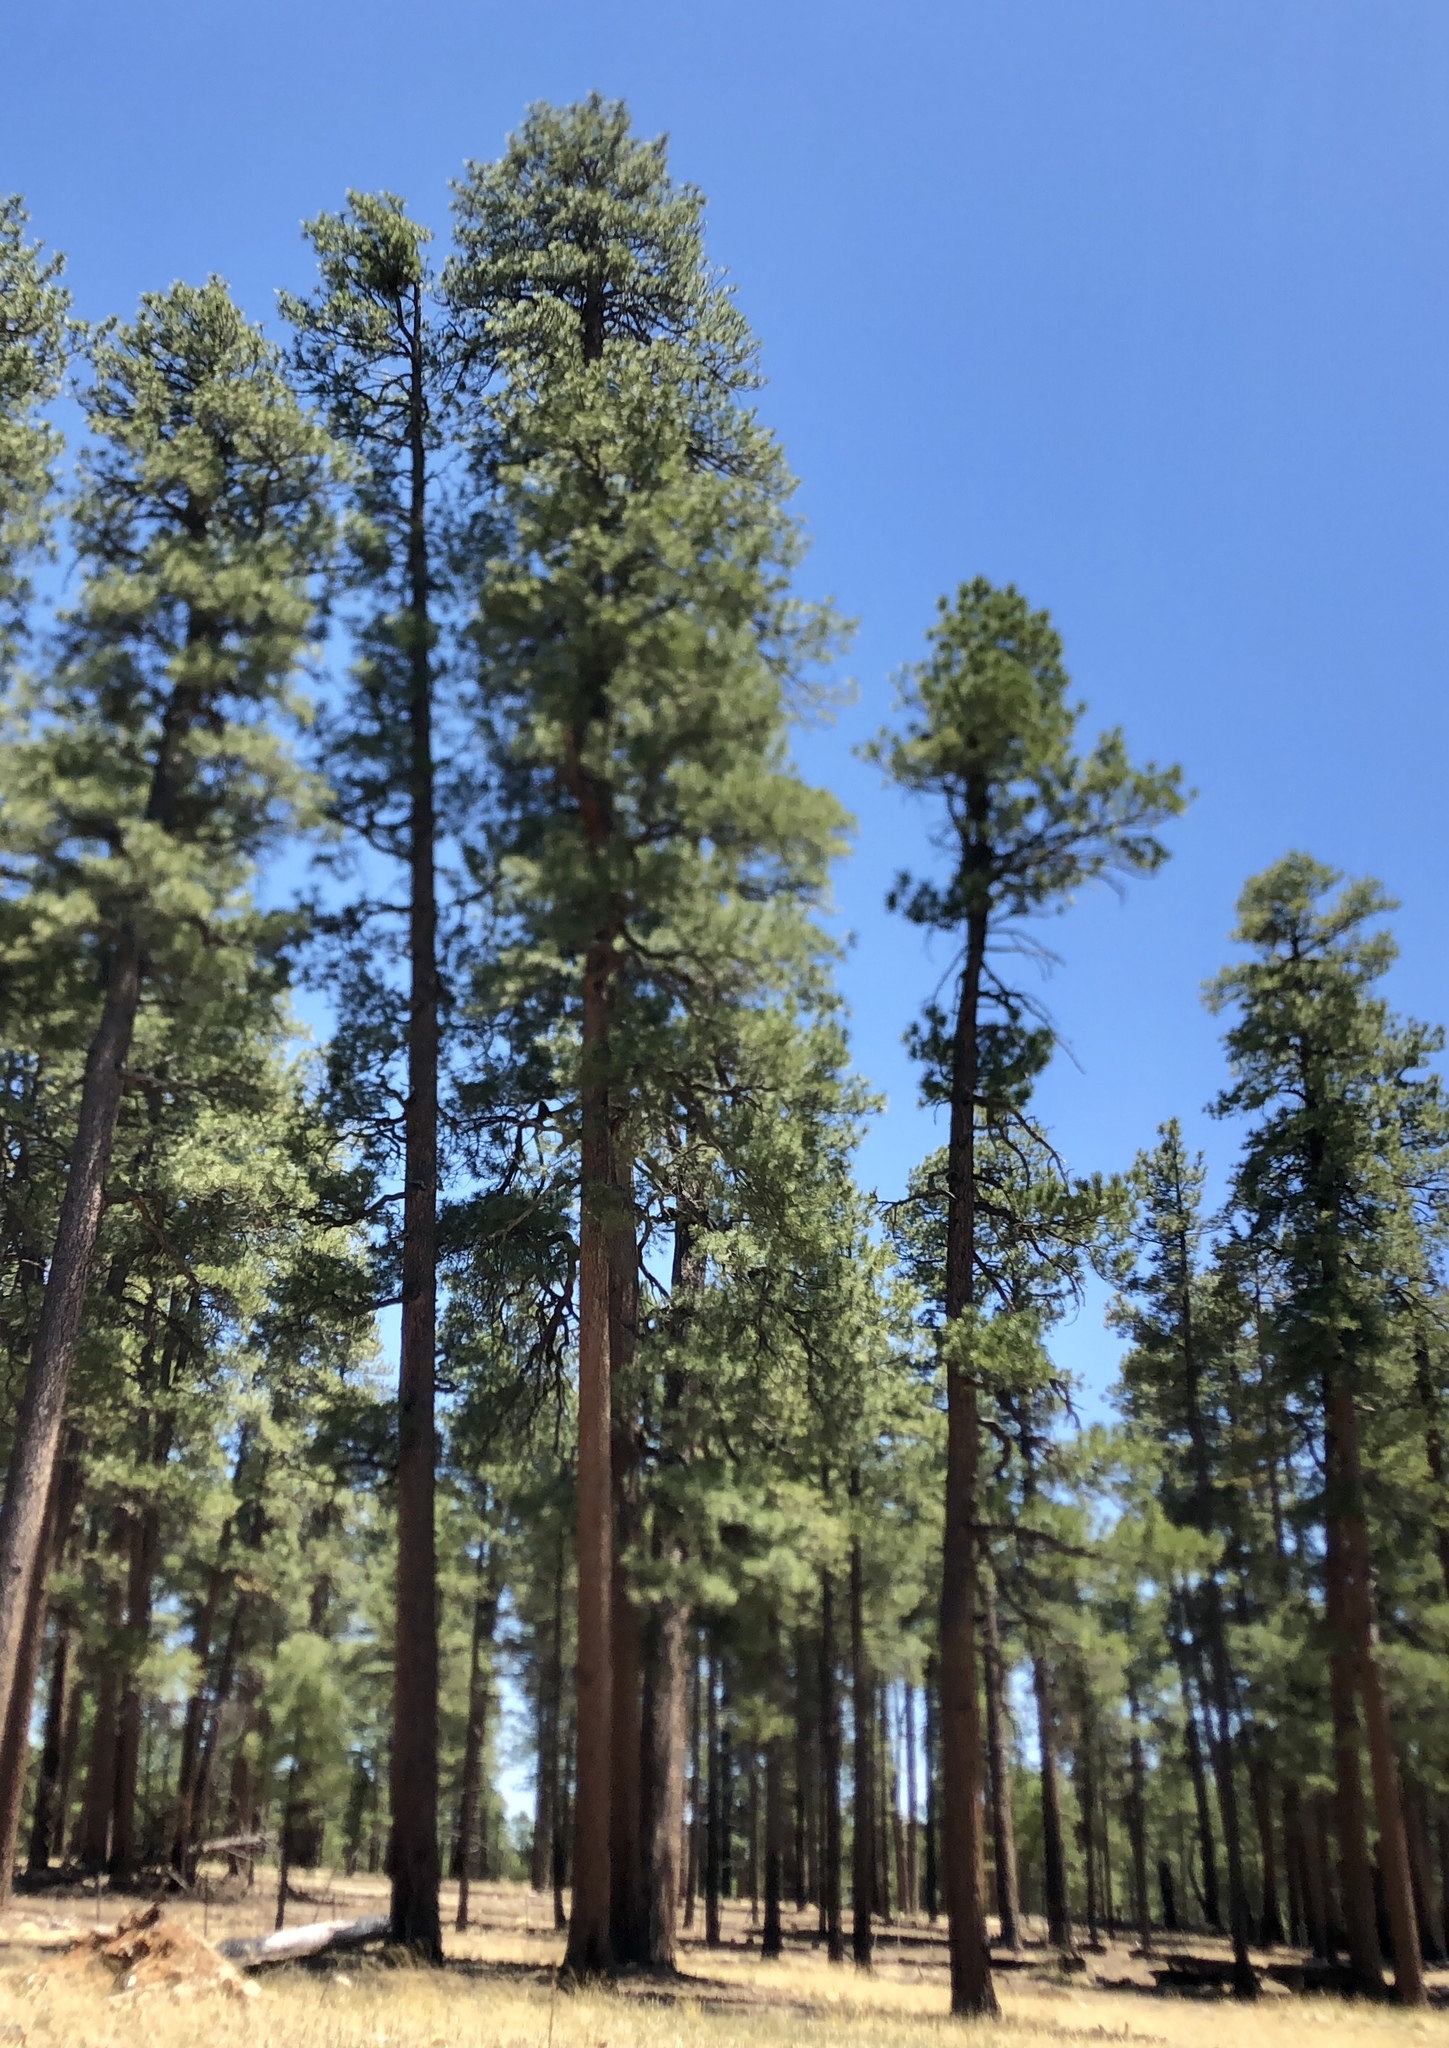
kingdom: Plantae
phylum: Tracheophyta
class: Pinopsida
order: Pinales
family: Pinaceae
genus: Pinus
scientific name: Pinus ponderosa
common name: Western yellow-pine
